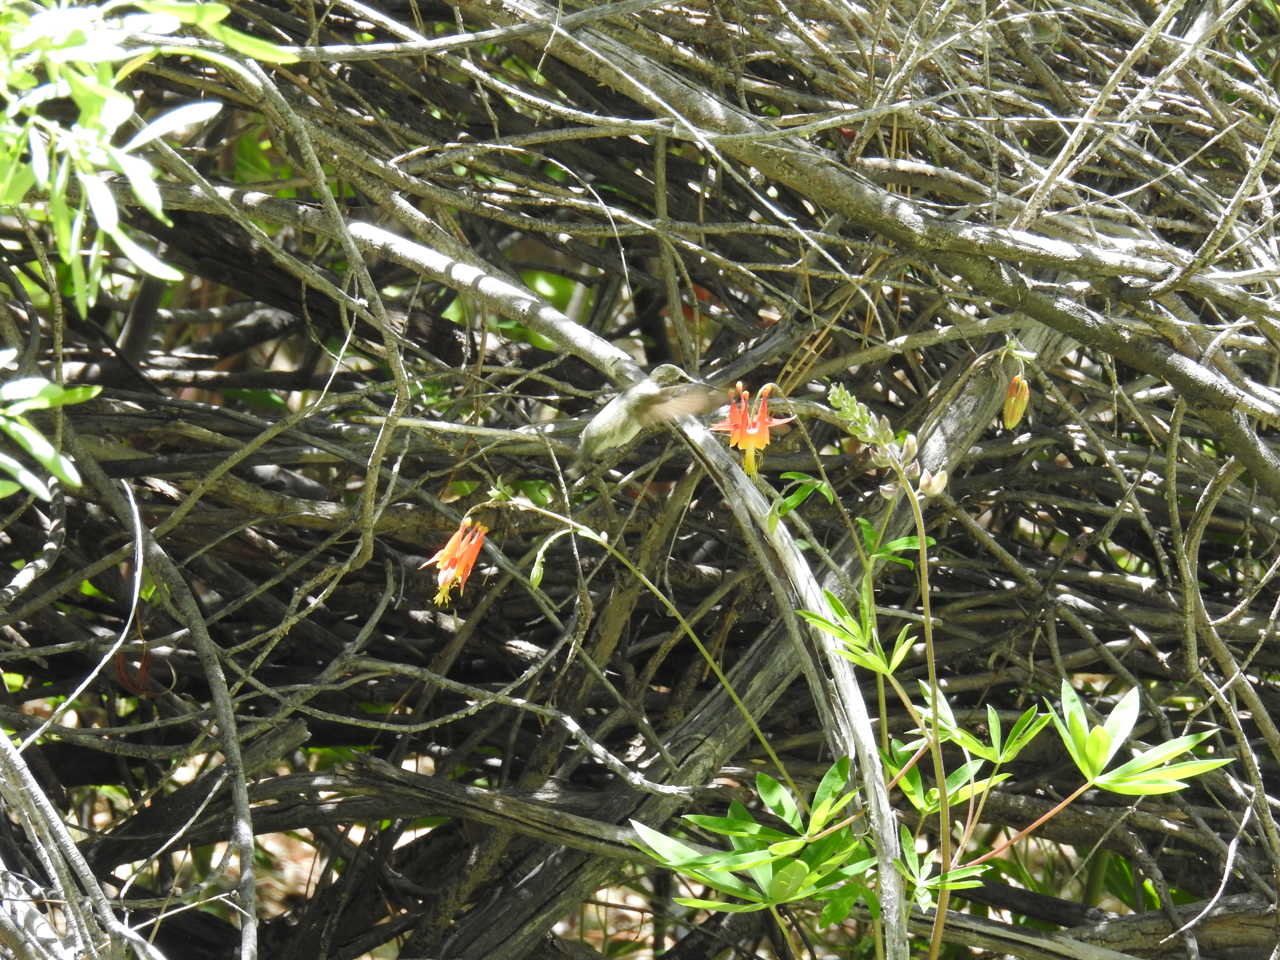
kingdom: Animalia
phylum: Chordata
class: Aves
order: Apodiformes
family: Trochilidae
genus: Calypte
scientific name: Calypte costae
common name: Costa's hummingbird
